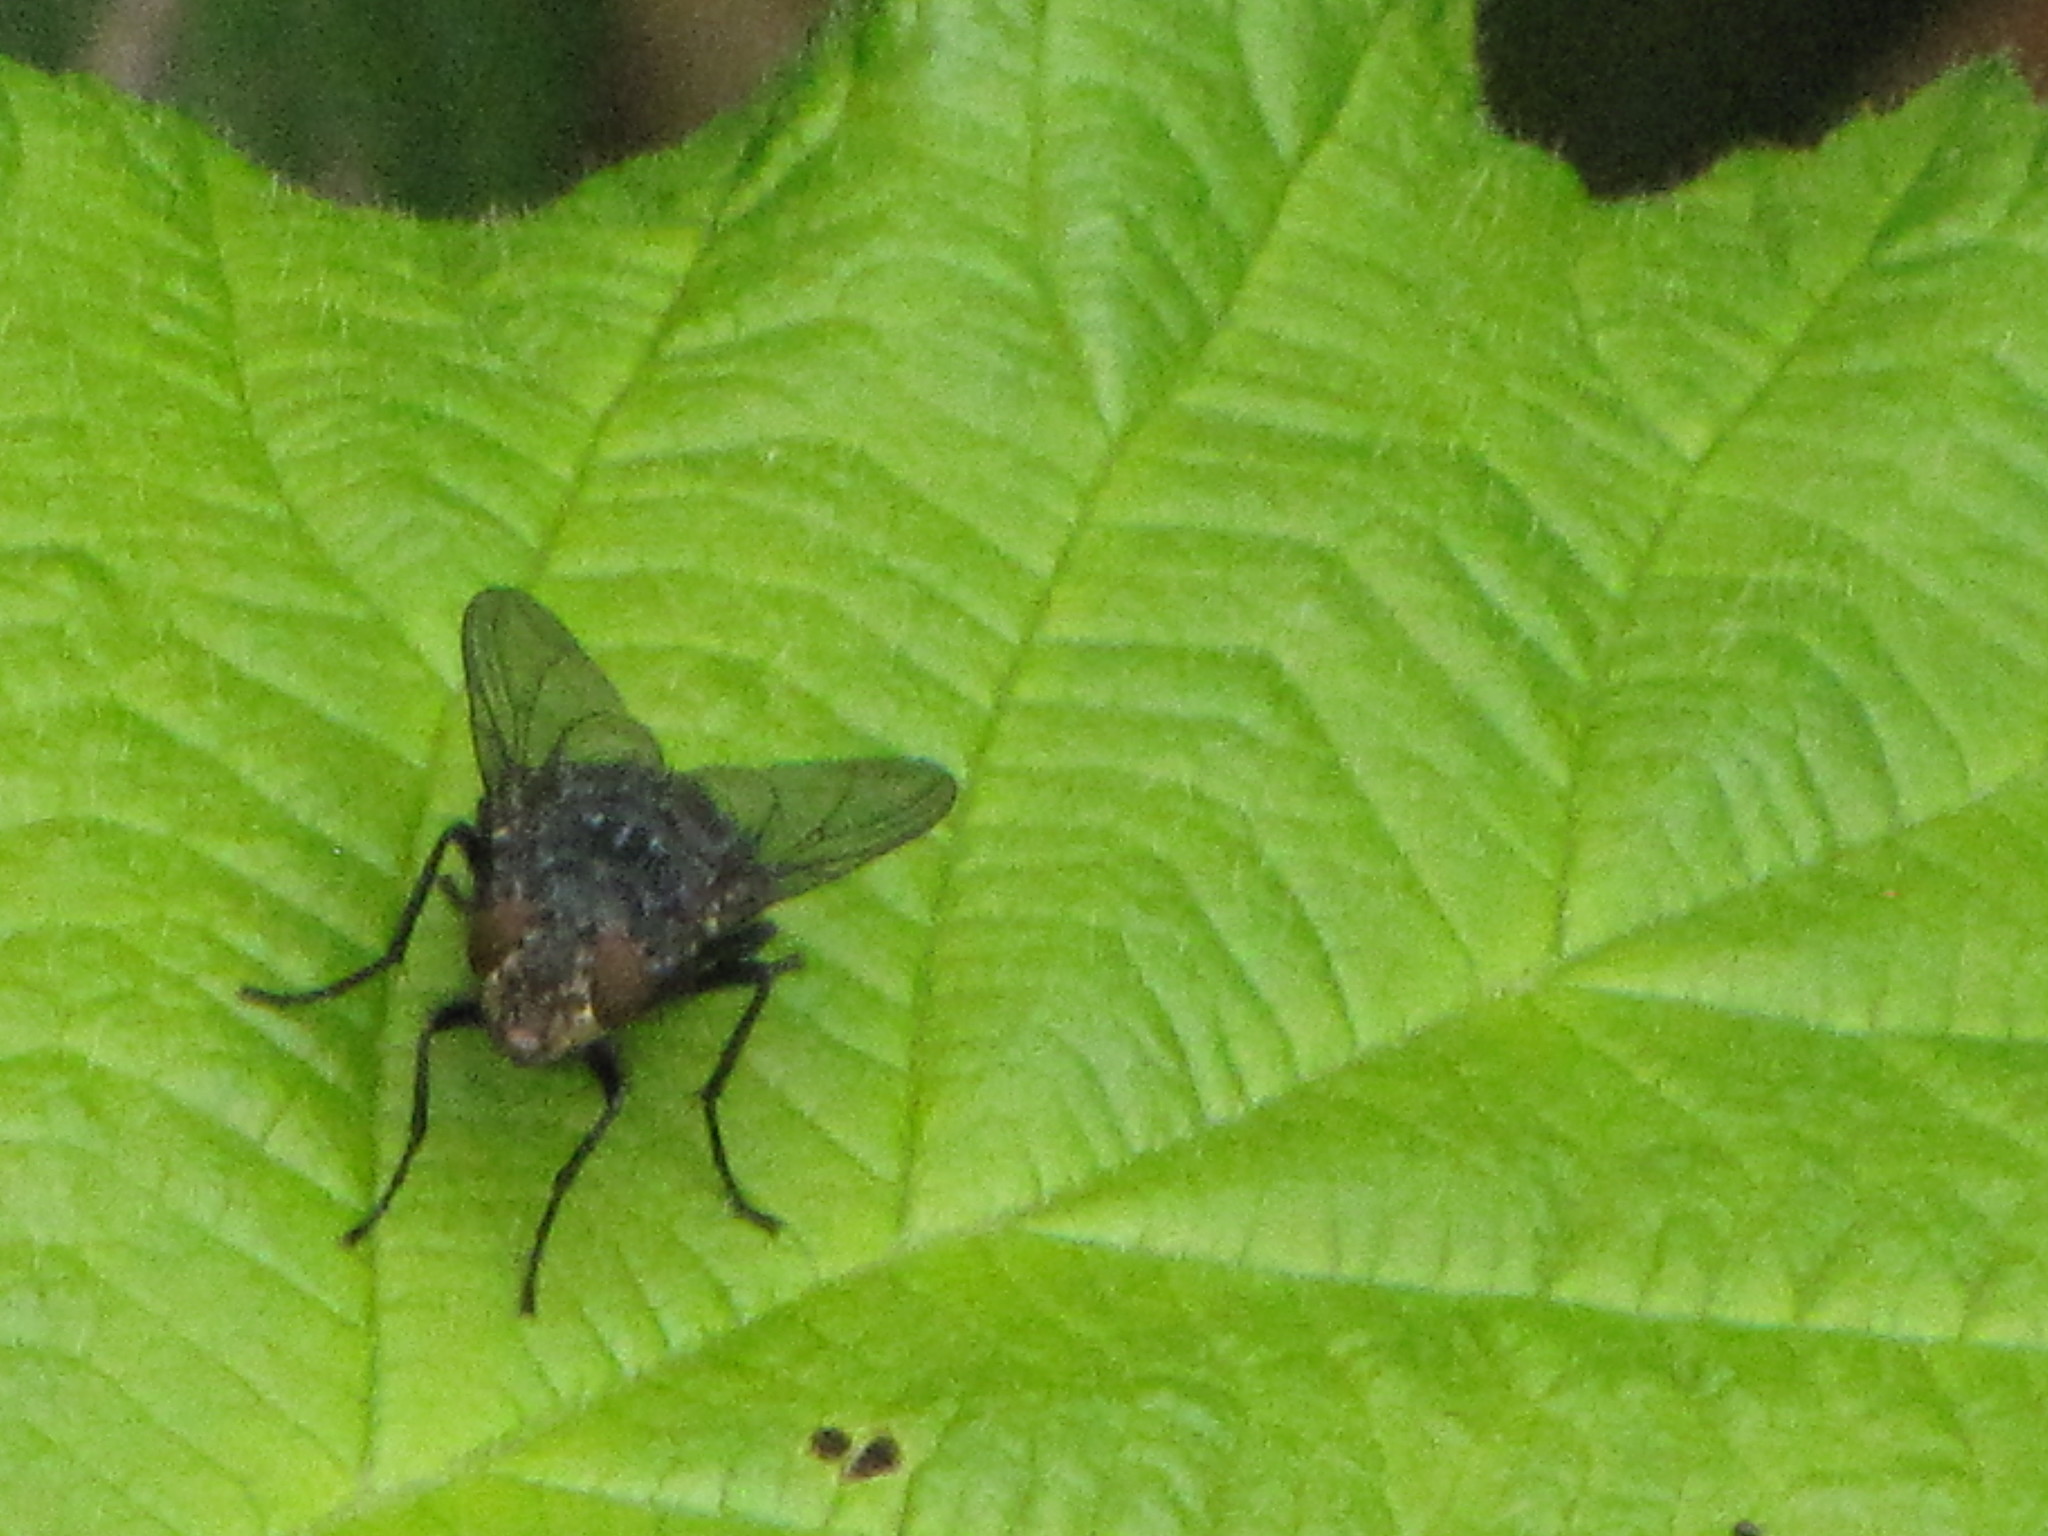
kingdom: Animalia
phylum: Arthropoda
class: Insecta
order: Diptera
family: Calliphoridae
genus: Calliphora
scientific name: Calliphora vicina
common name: Common blow flie
